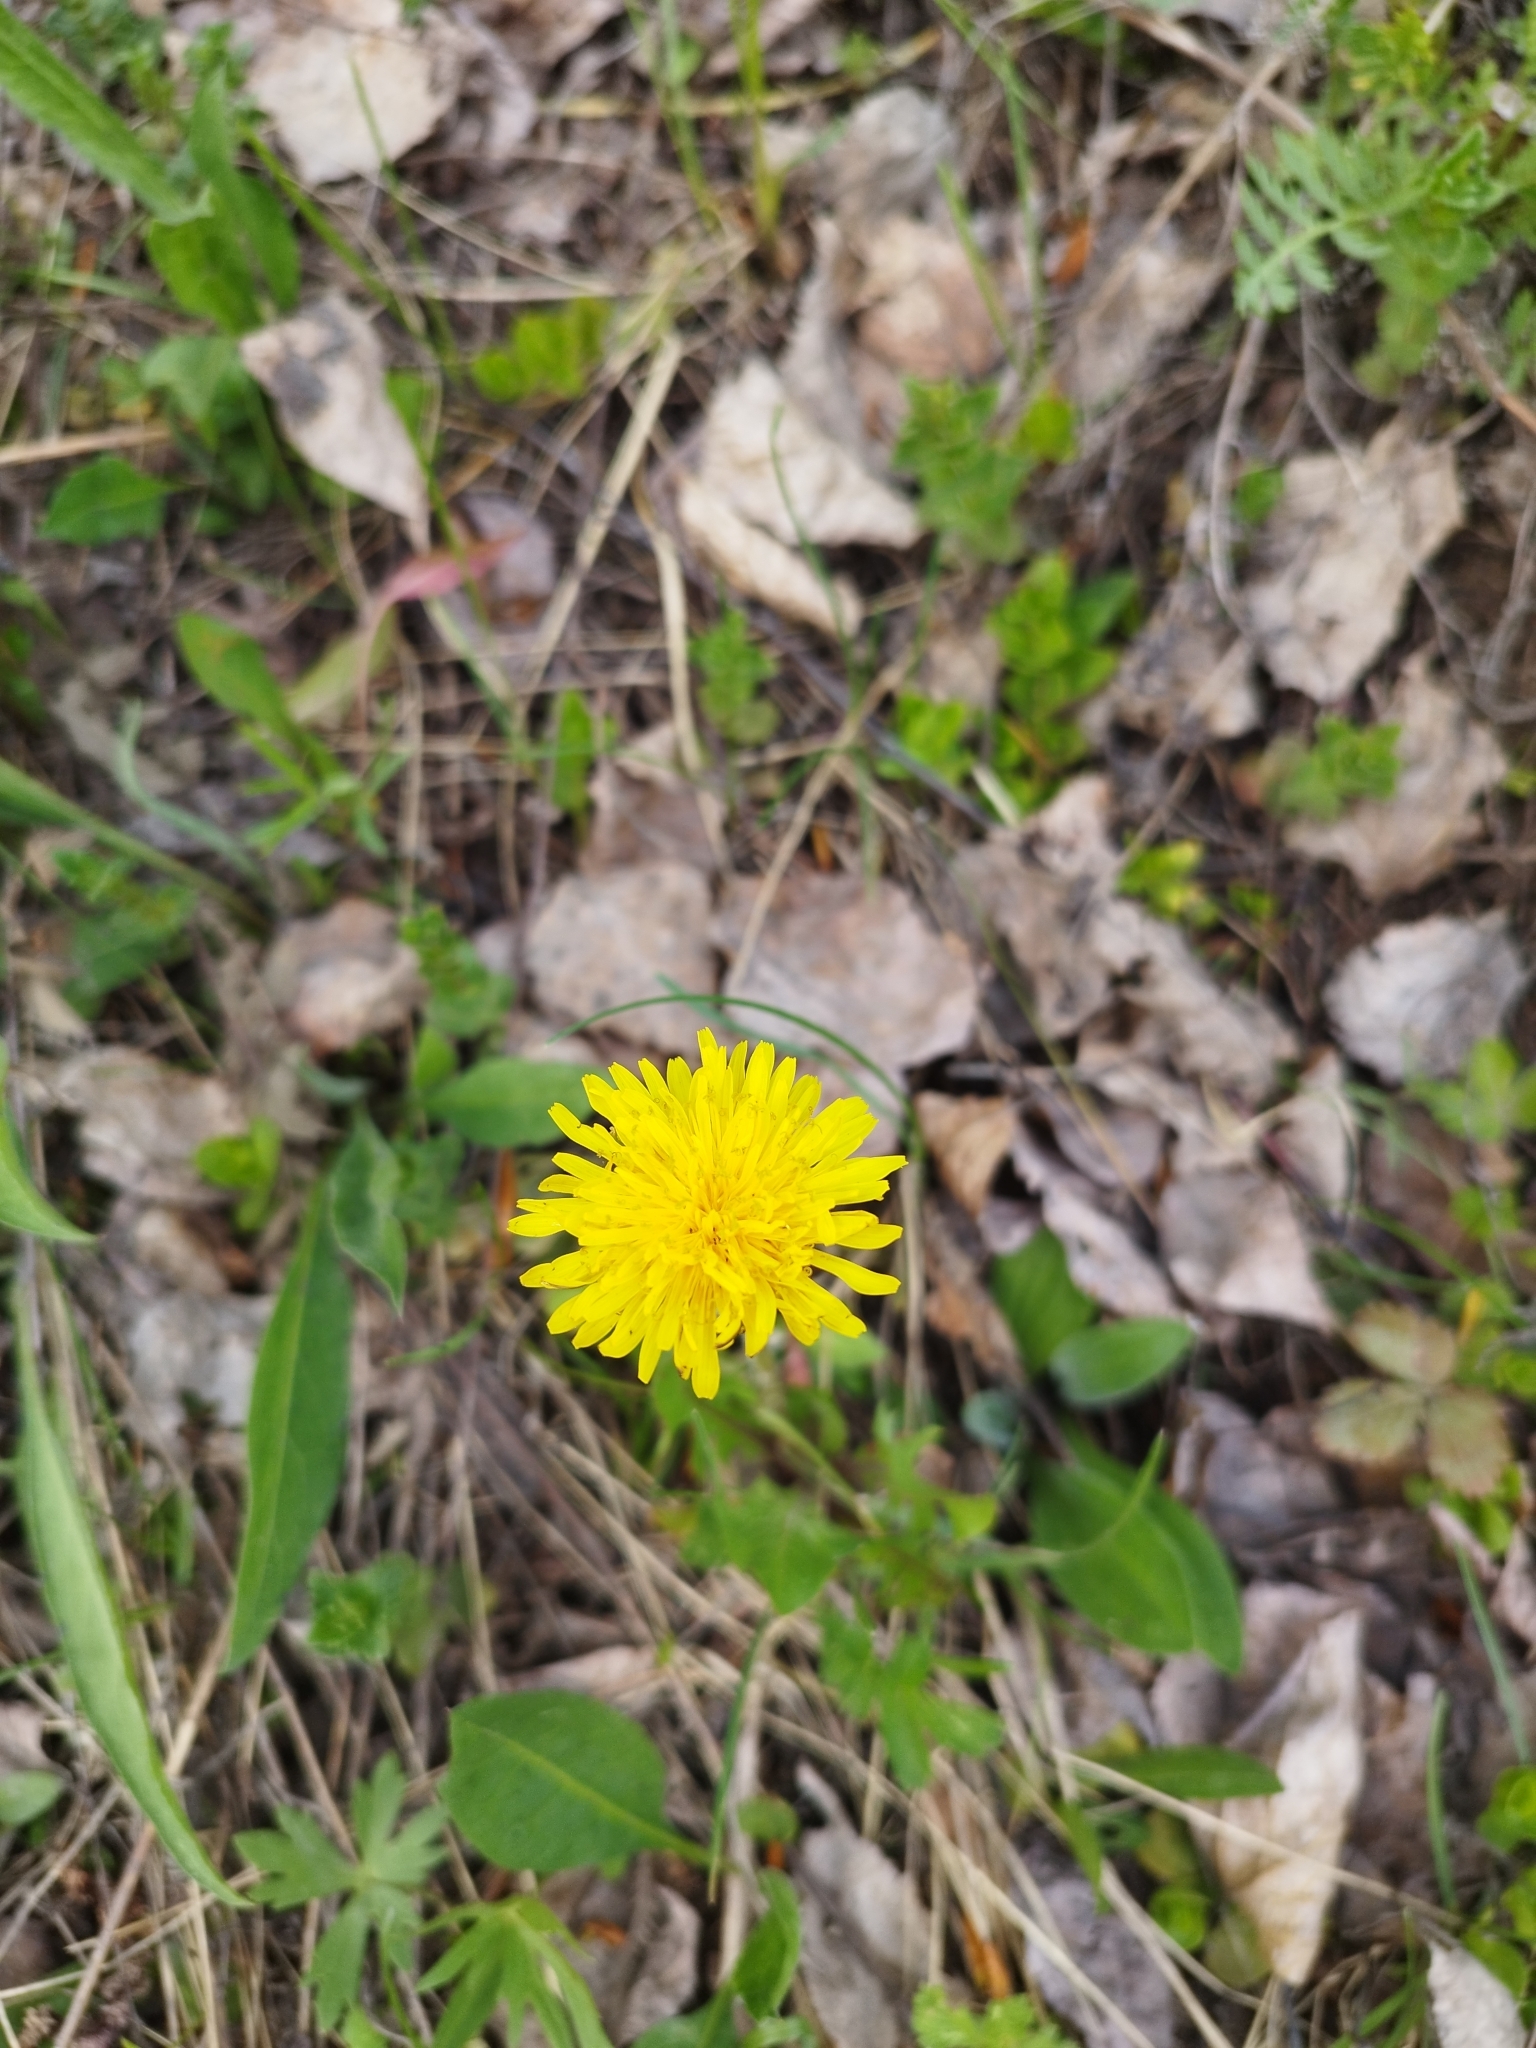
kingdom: Plantae
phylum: Tracheophyta
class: Magnoliopsida
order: Asterales
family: Asteraceae
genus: Taraxacum
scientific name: Taraxacum officinale
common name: Common dandelion
